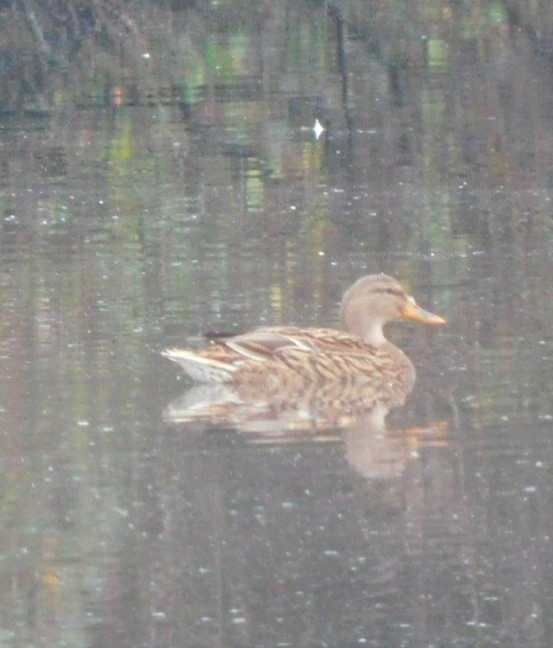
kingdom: Animalia
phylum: Chordata
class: Aves
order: Anseriformes
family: Anatidae
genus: Anas
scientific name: Anas platyrhynchos
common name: Mallard
